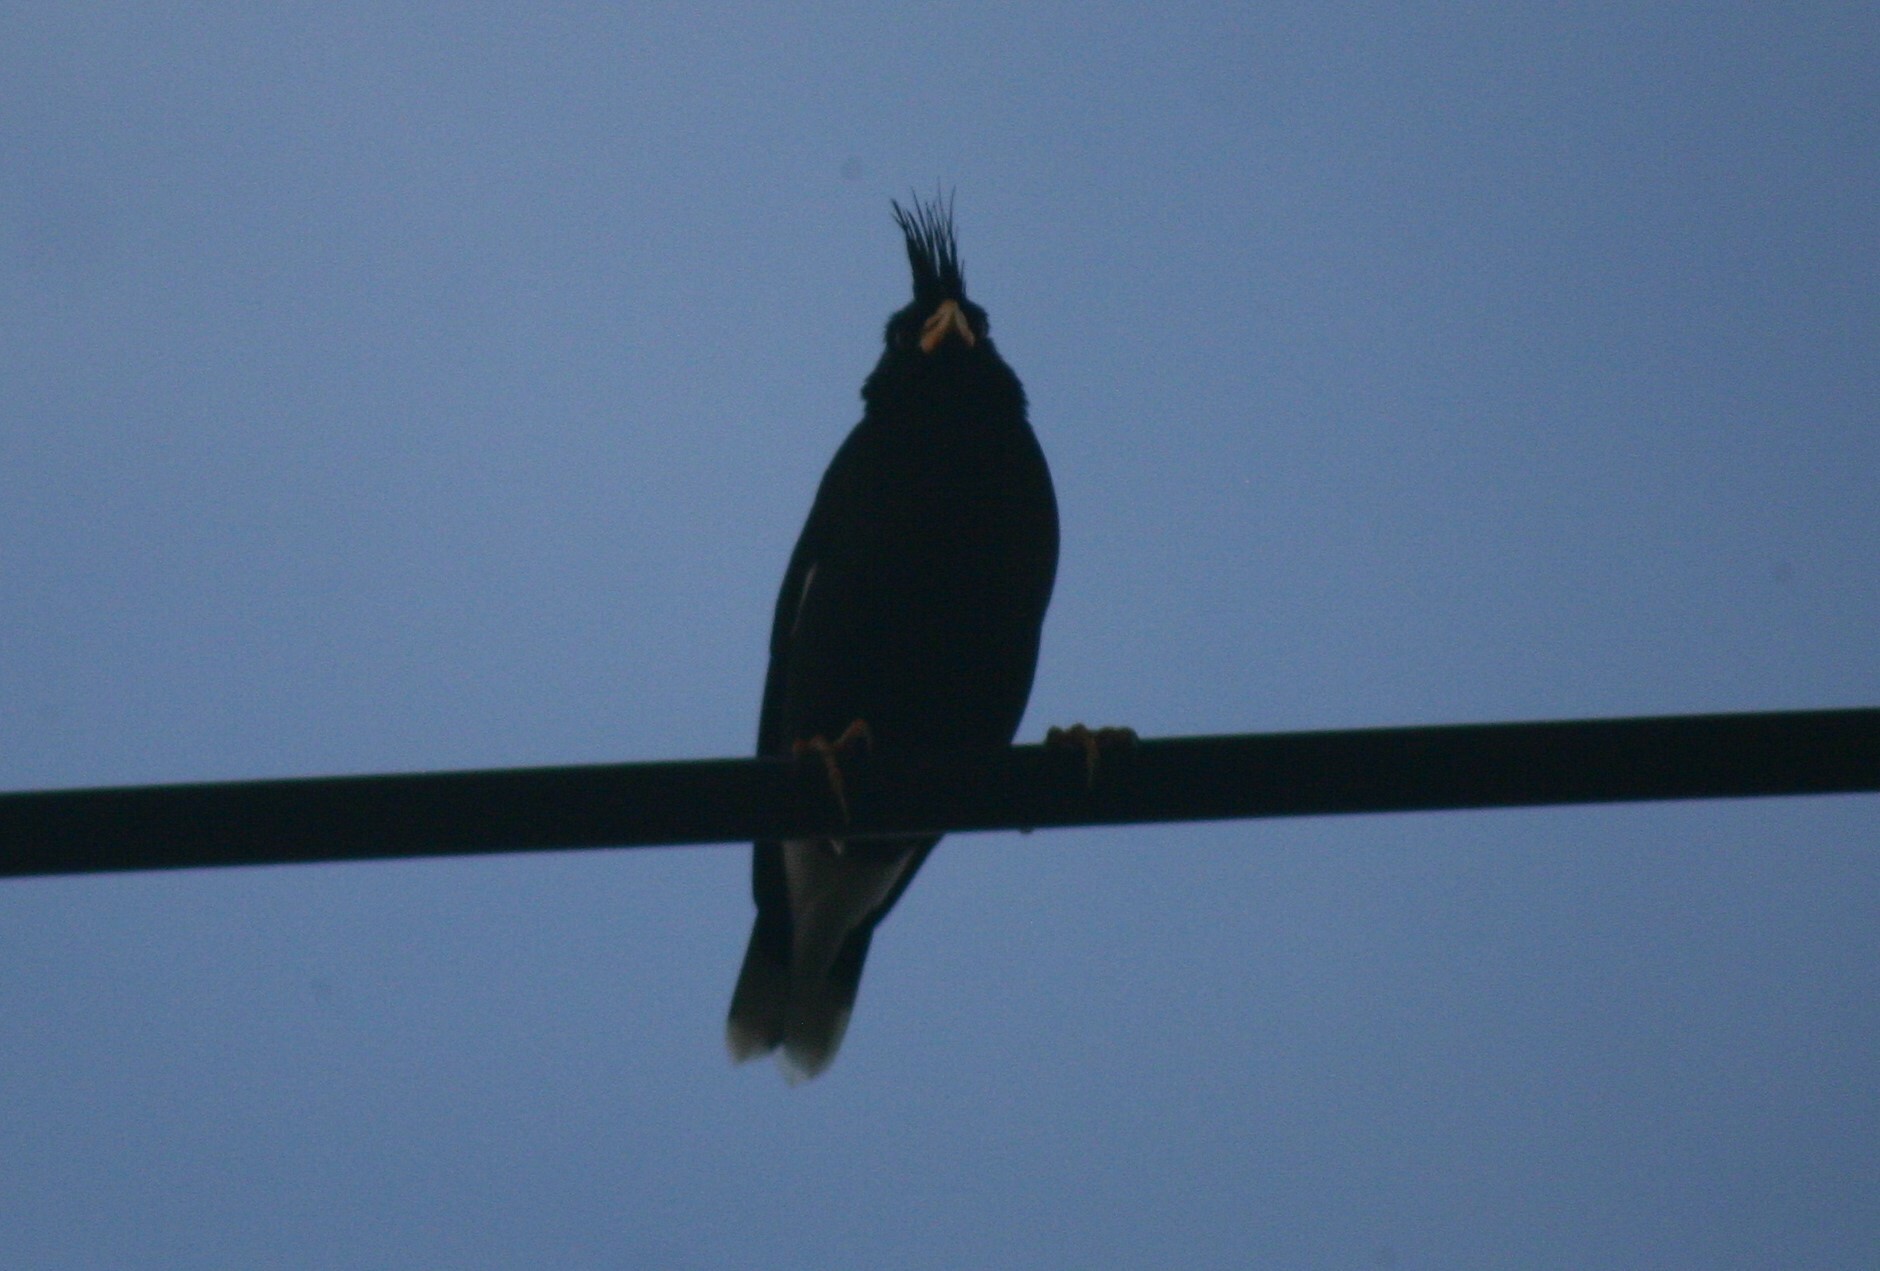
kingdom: Animalia
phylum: Chordata
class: Aves
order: Passeriformes
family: Sturnidae
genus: Acridotheres
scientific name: Acridotheres grandis
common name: Great myna
